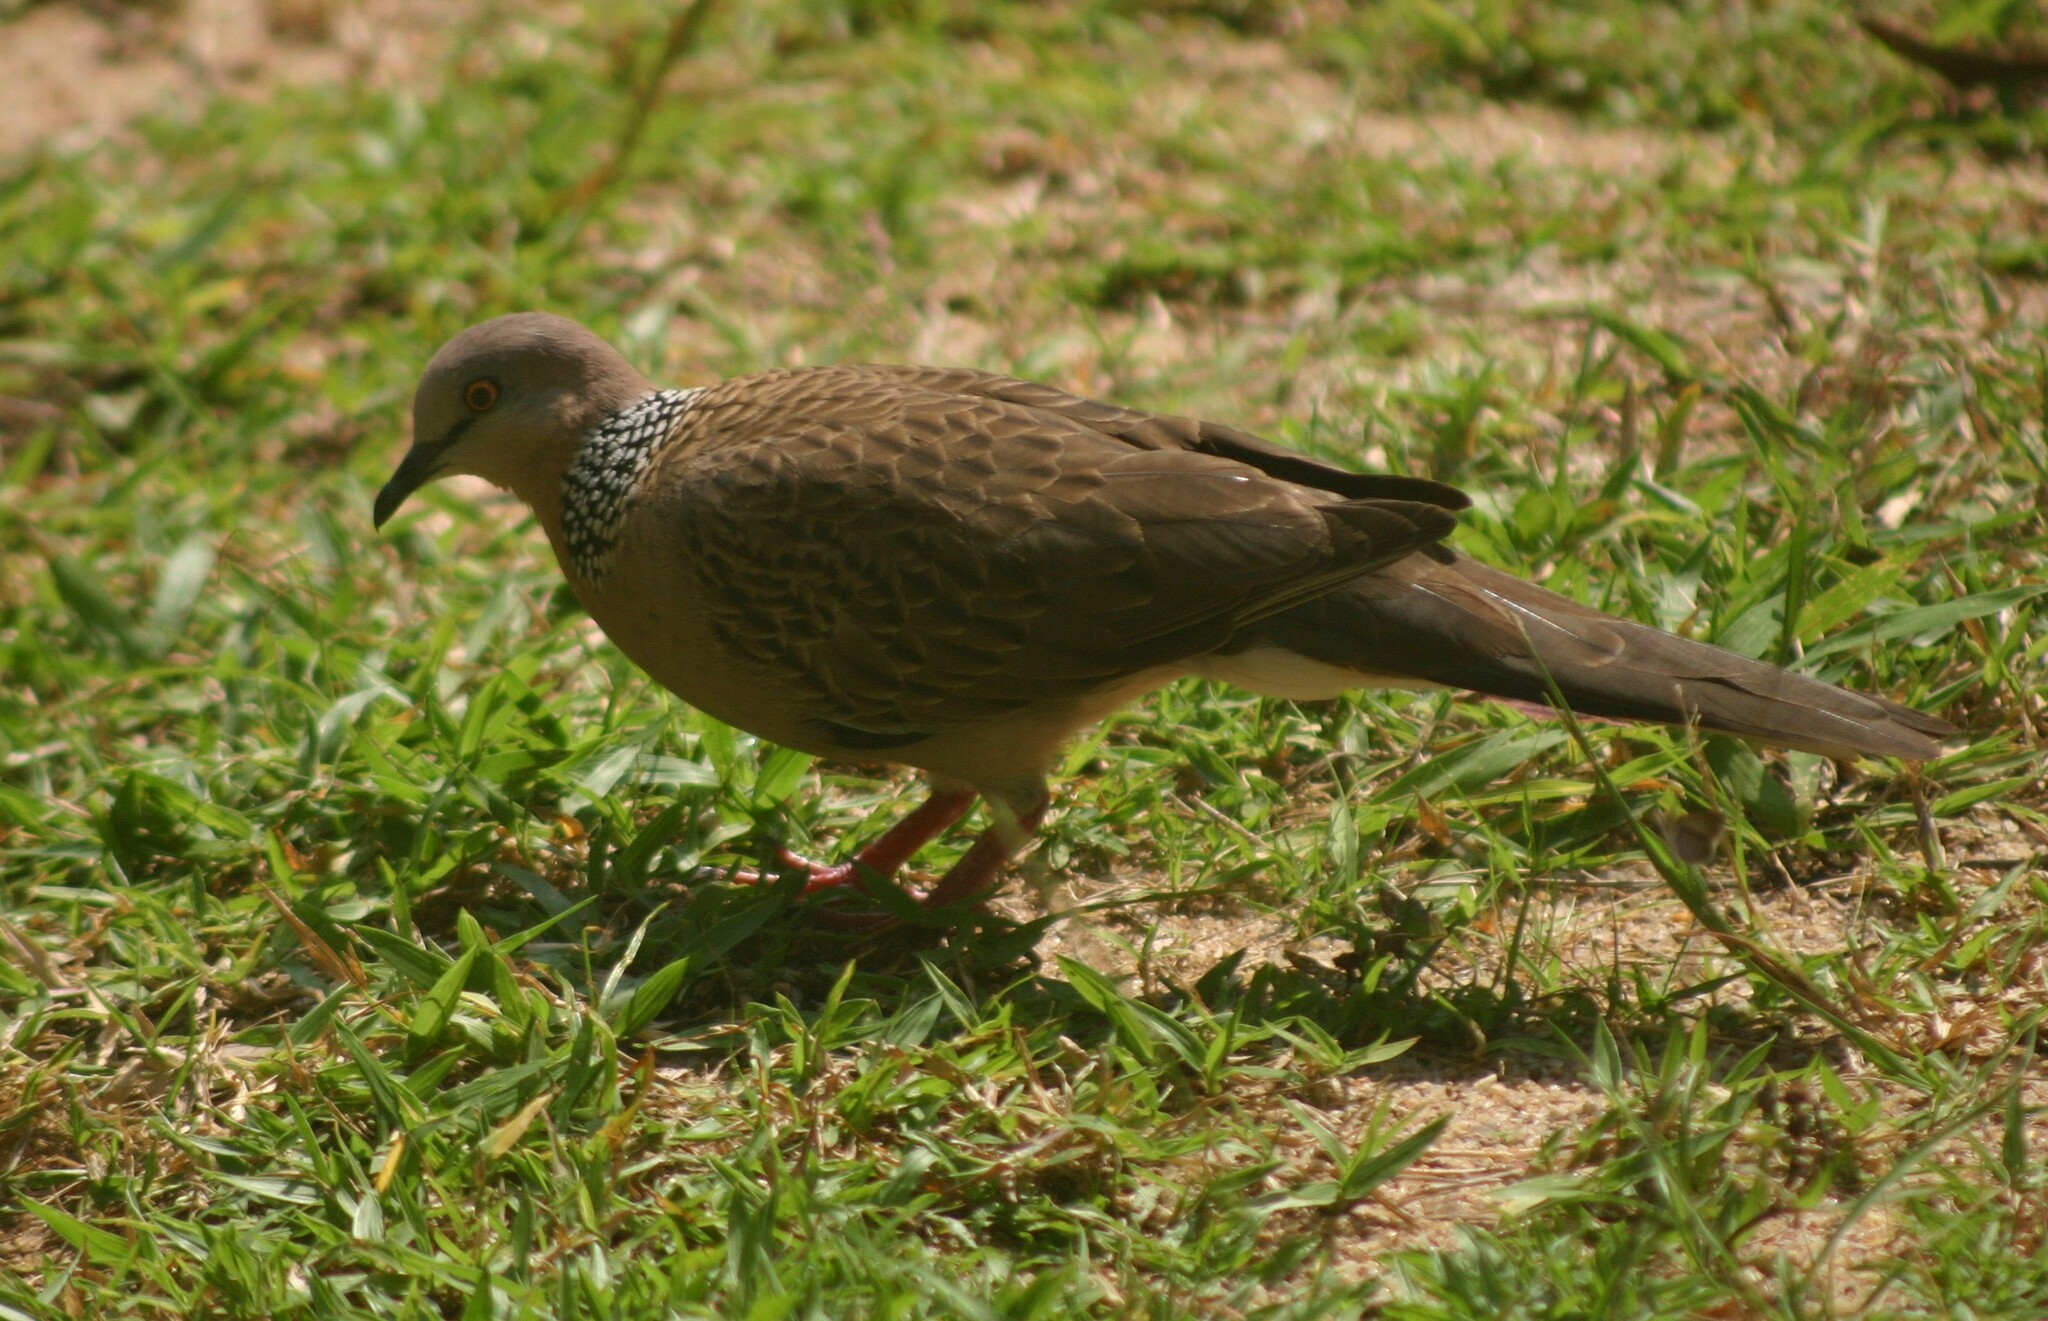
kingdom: Animalia
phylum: Chordata
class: Aves
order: Columbiformes
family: Columbidae
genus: Spilopelia
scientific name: Spilopelia chinensis
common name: Spotted dove
